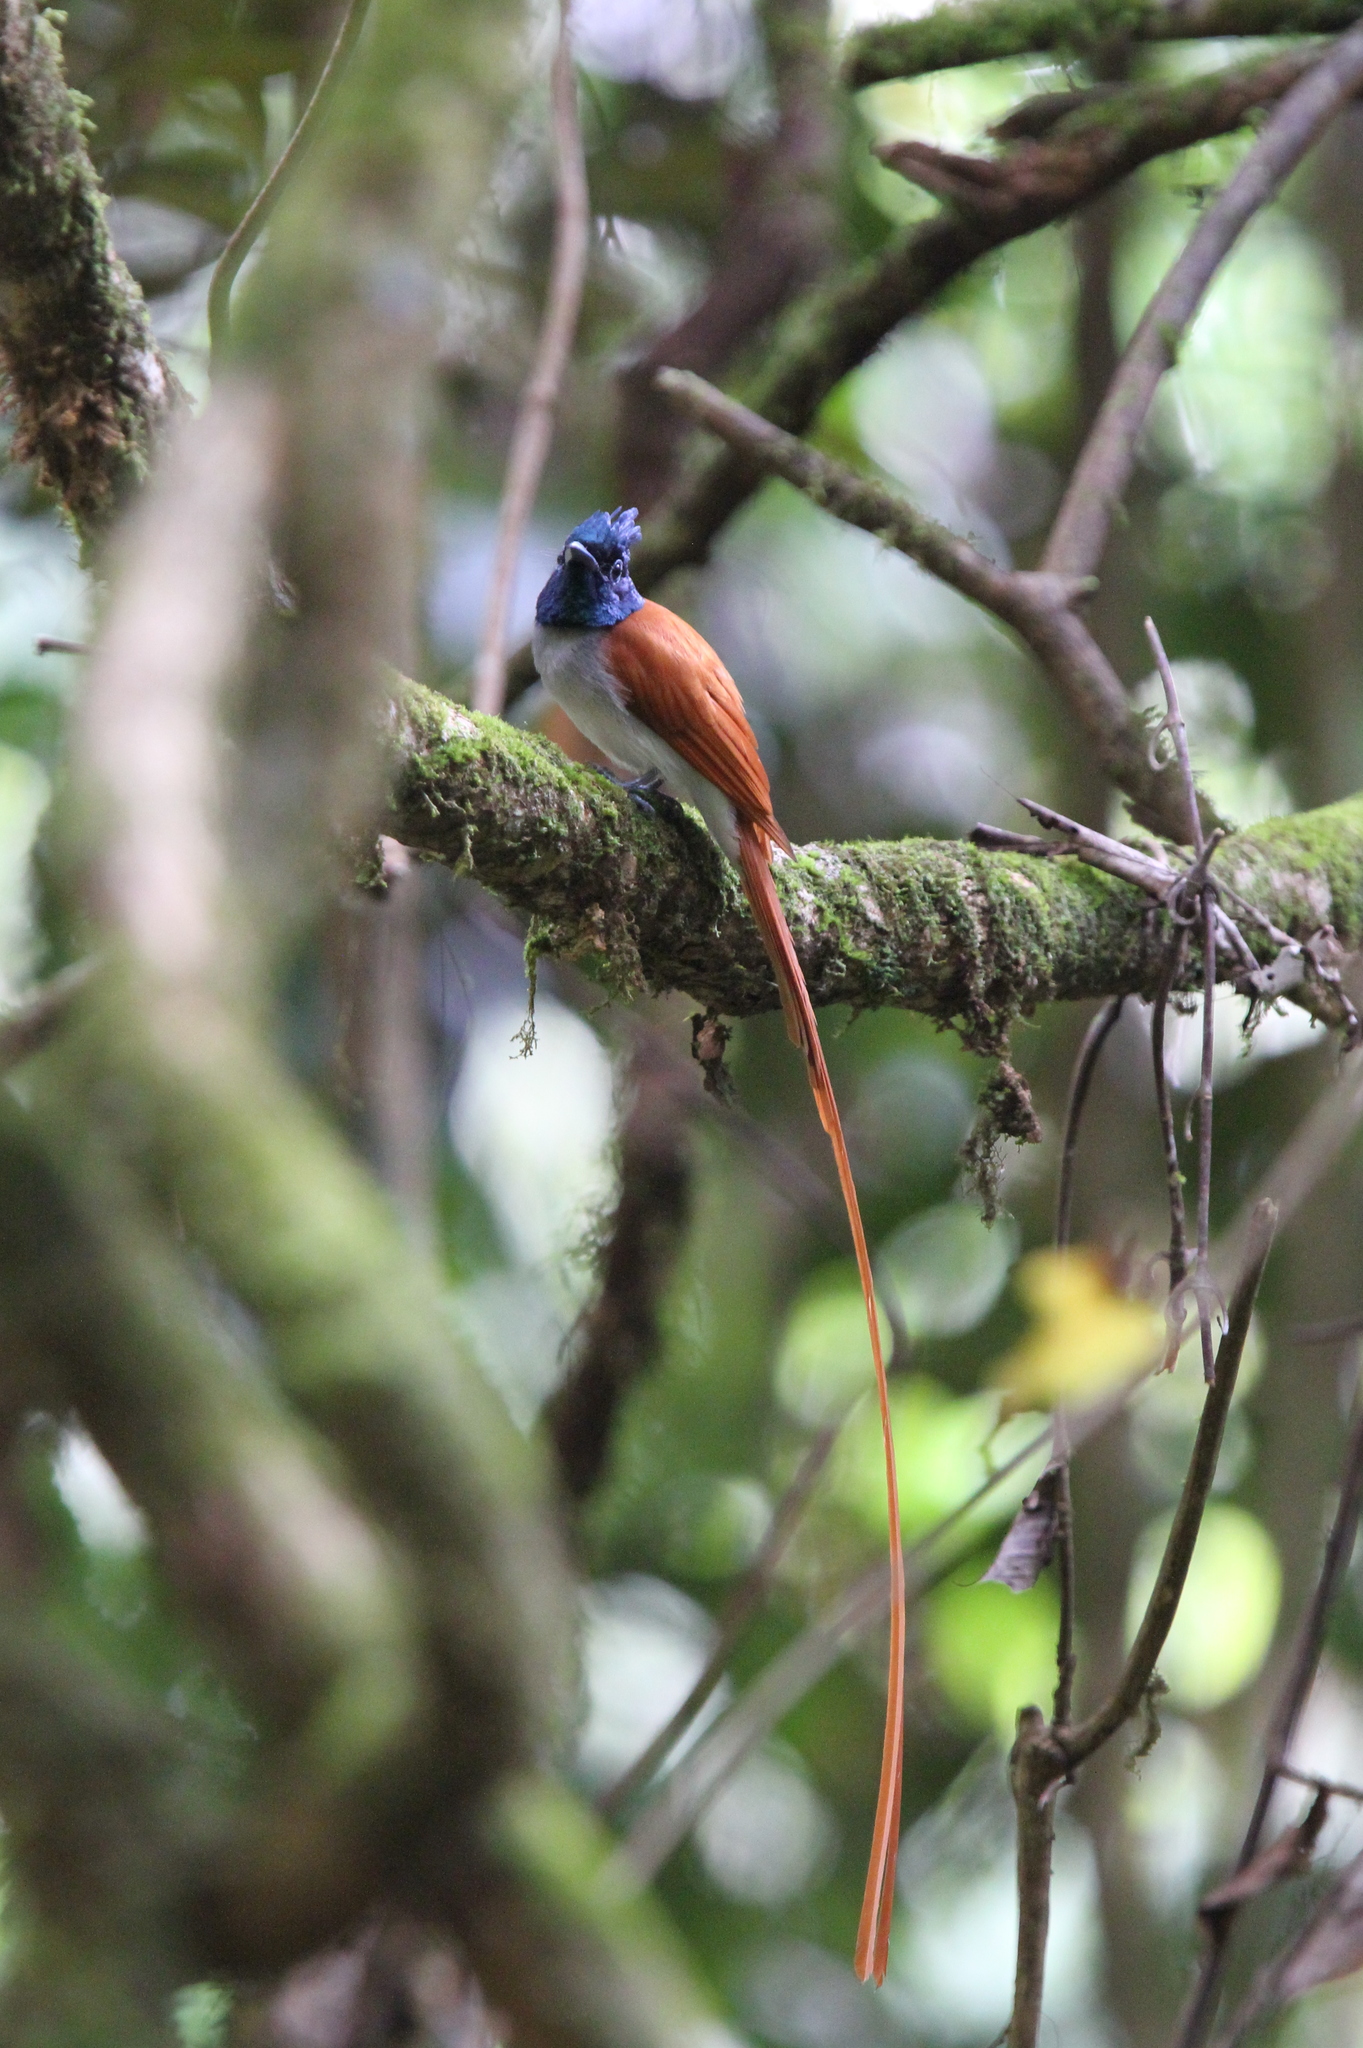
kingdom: Animalia
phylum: Chordata
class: Aves
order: Passeriformes
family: Monarchidae
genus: Terpsiphone
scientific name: Terpsiphone paradisi
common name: Indian paradise flycatcher
